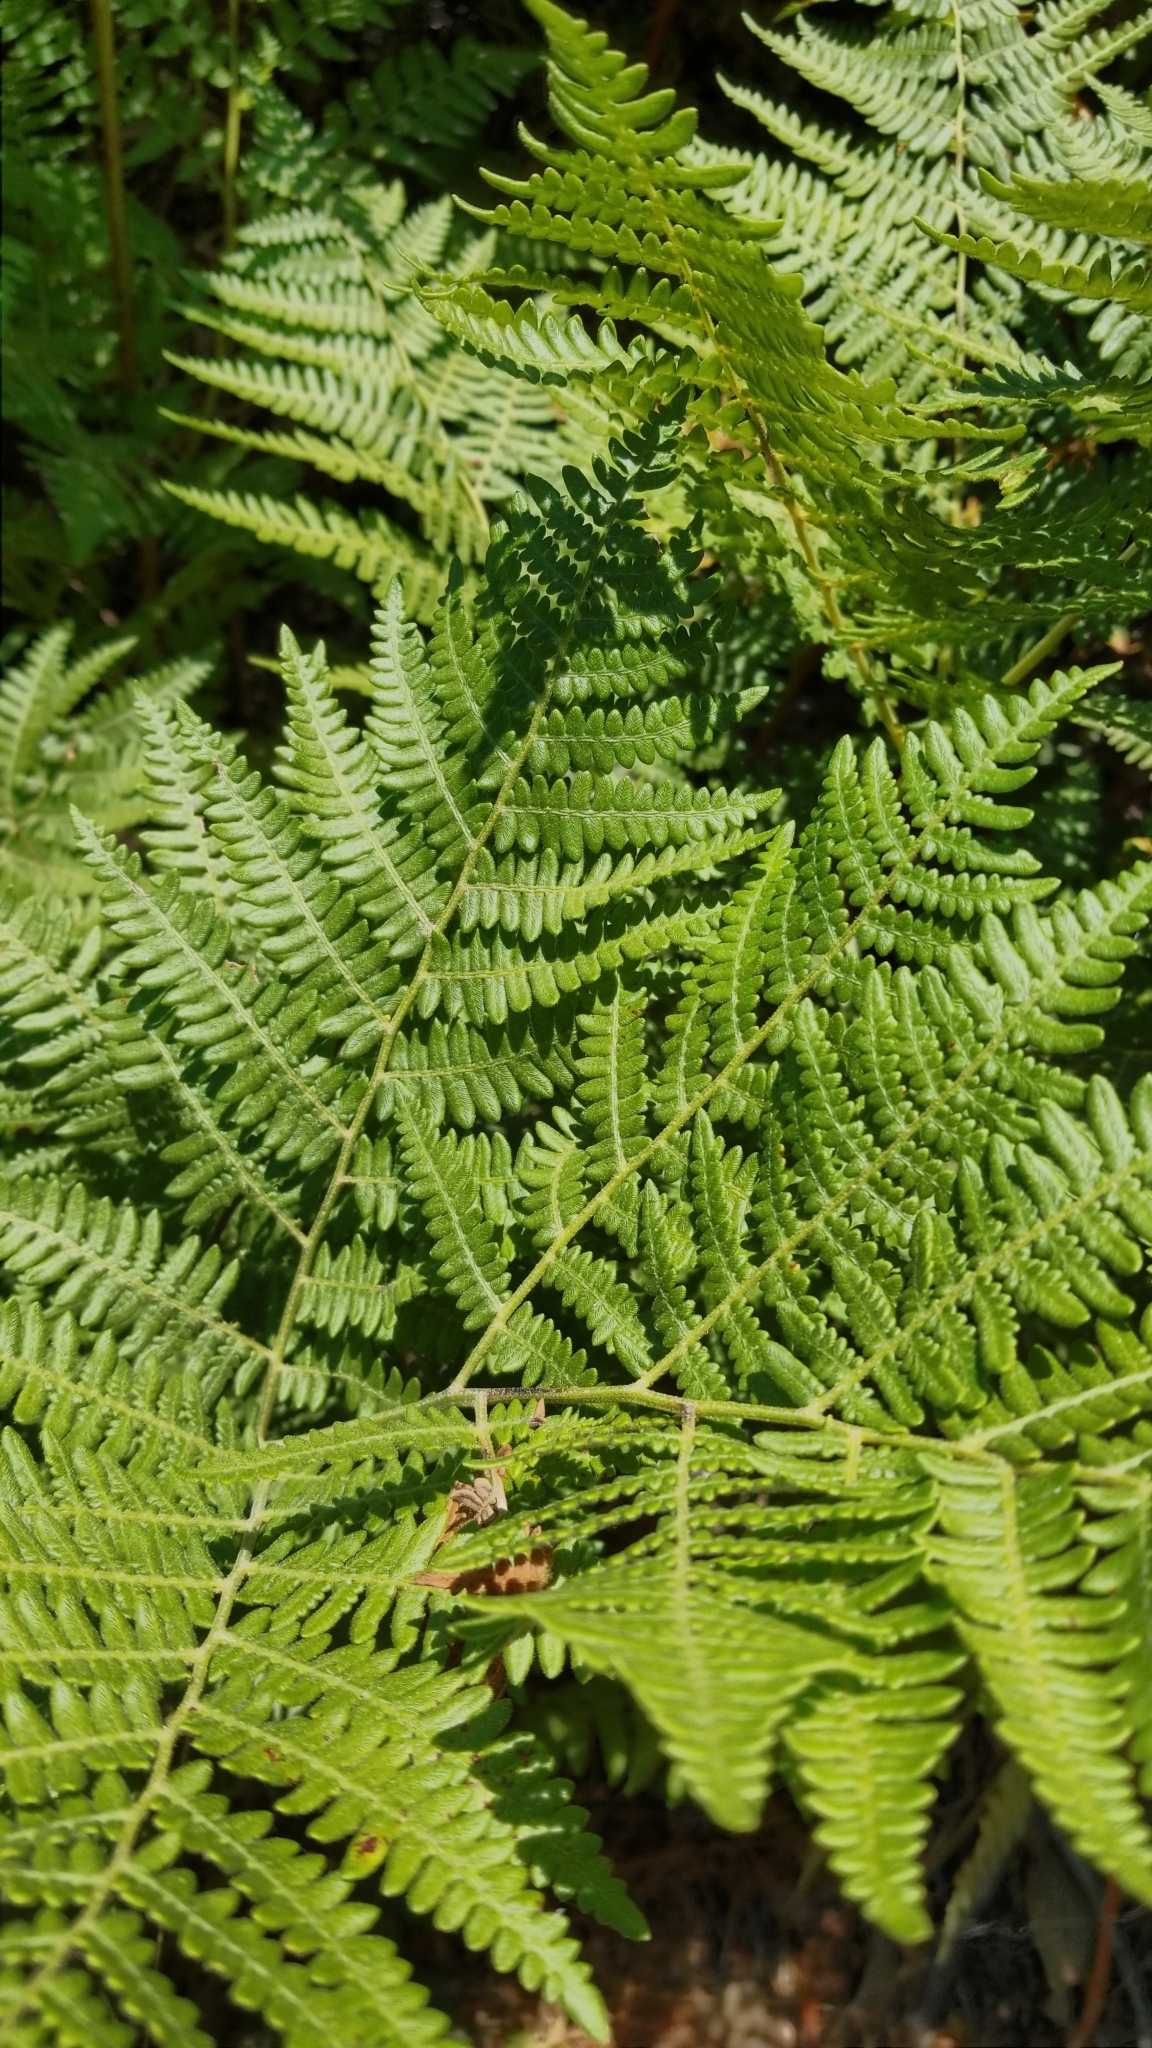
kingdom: Plantae
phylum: Tracheophyta
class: Polypodiopsida
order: Polypodiales
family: Dennstaedtiaceae
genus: Pteridium
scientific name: Pteridium aquilinum
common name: Bracken
